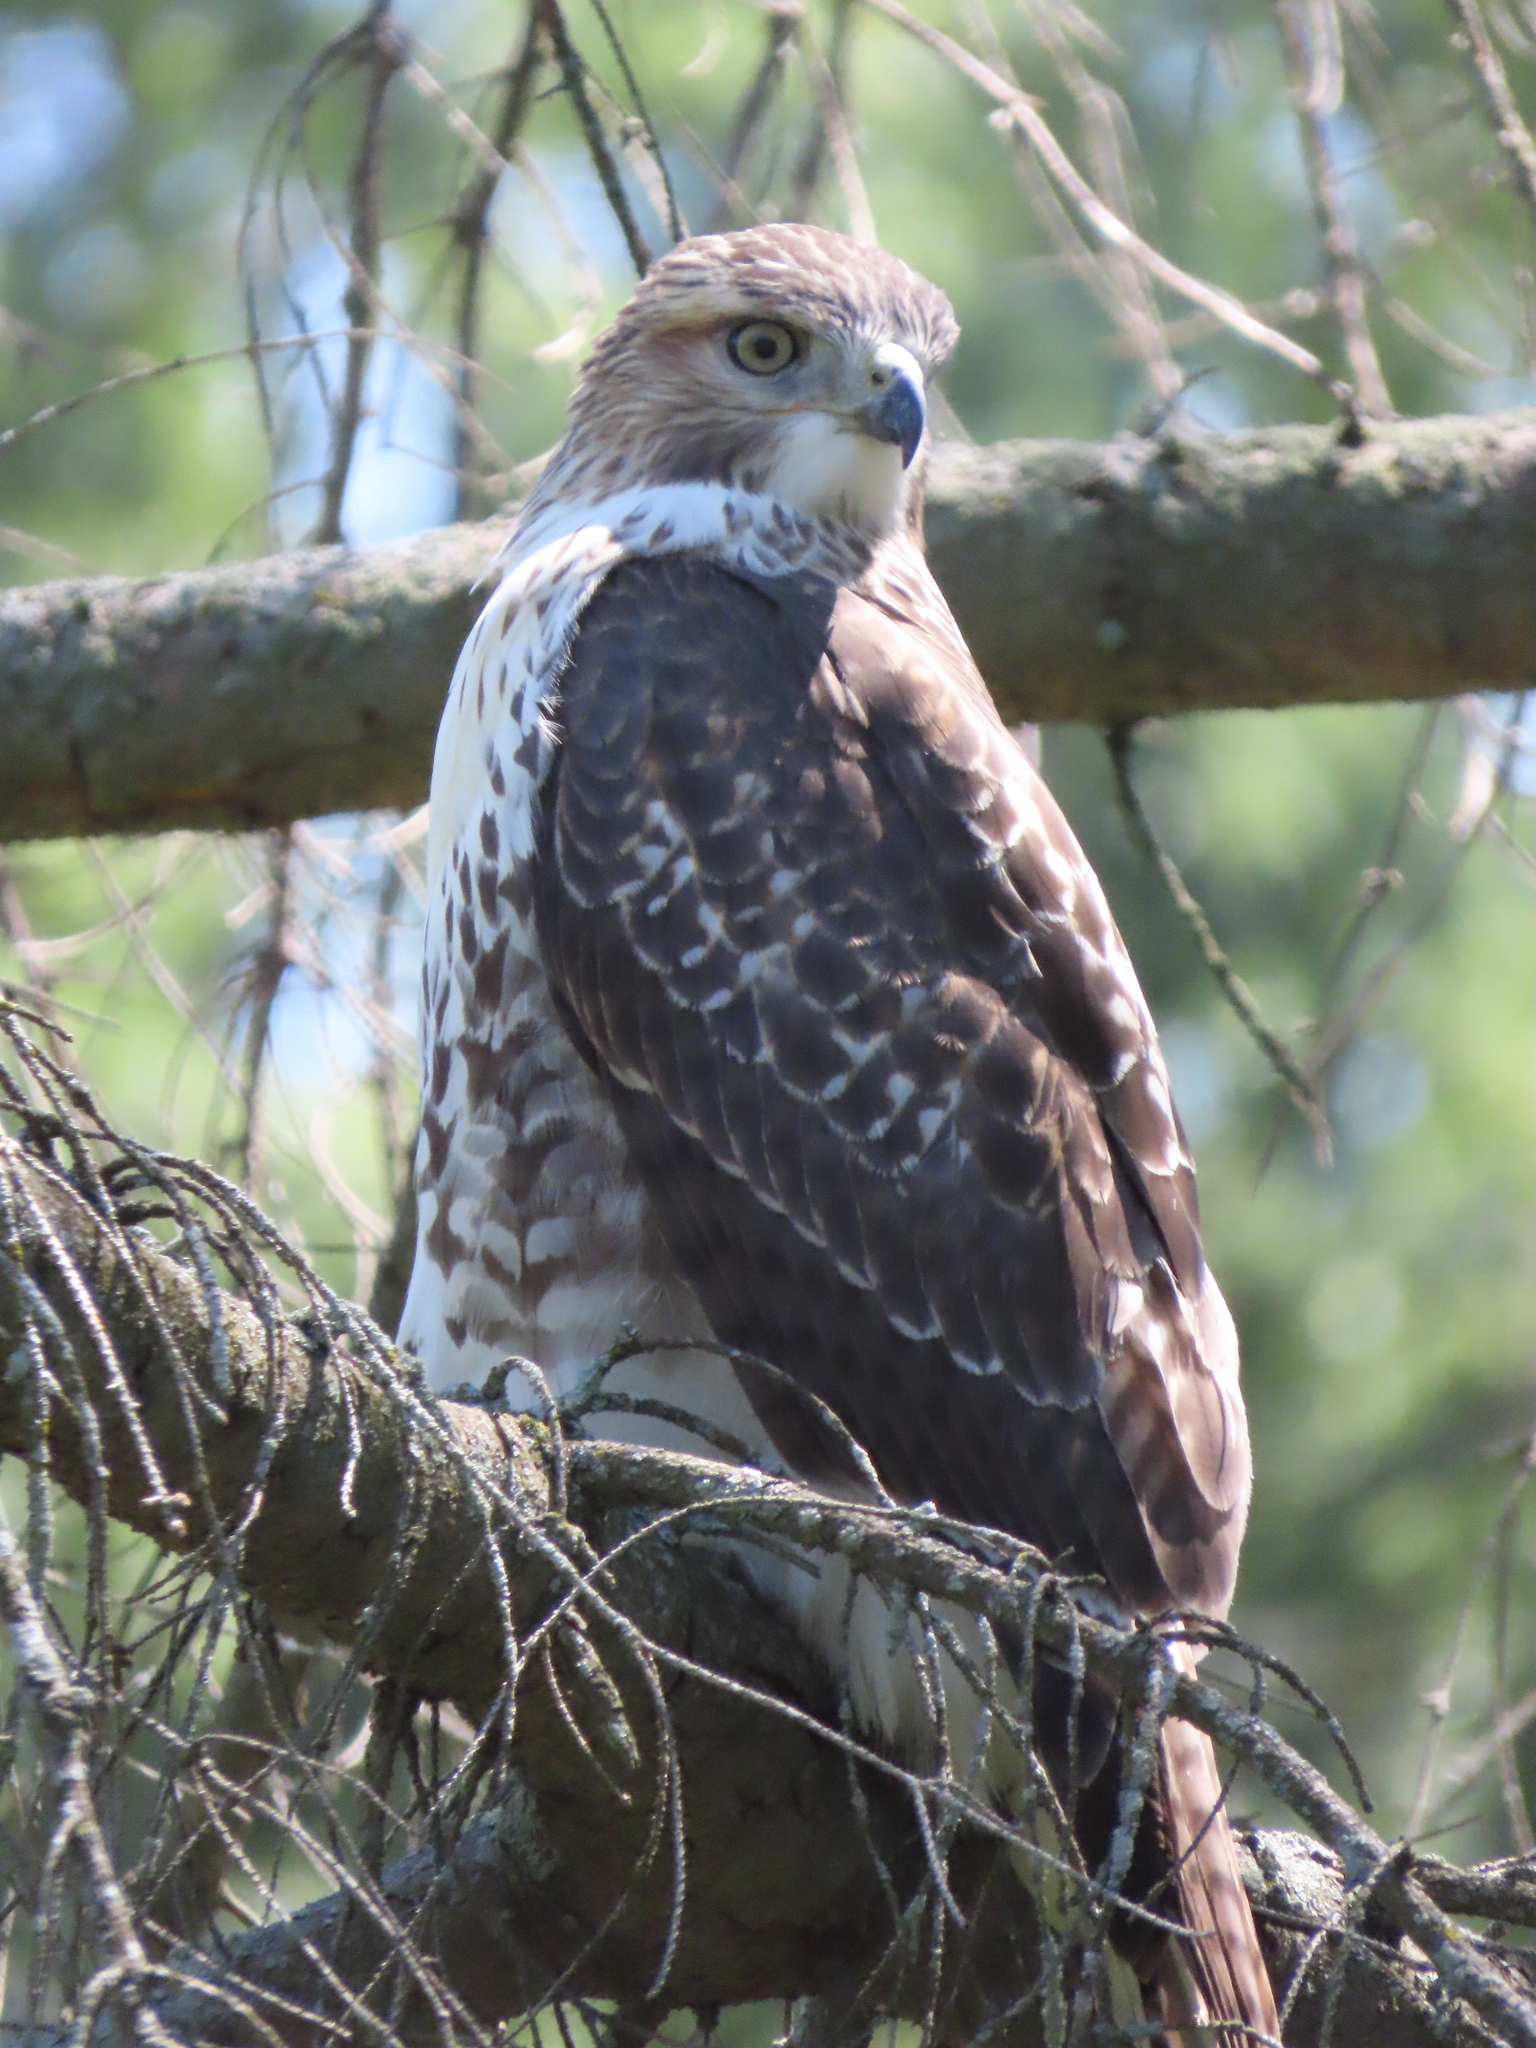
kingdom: Animalia
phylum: Chordata
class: Aves
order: Accipitriformes
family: Accipitridae
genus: Buteo
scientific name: Buteo jamaicensis
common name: Red-tailed hawk
